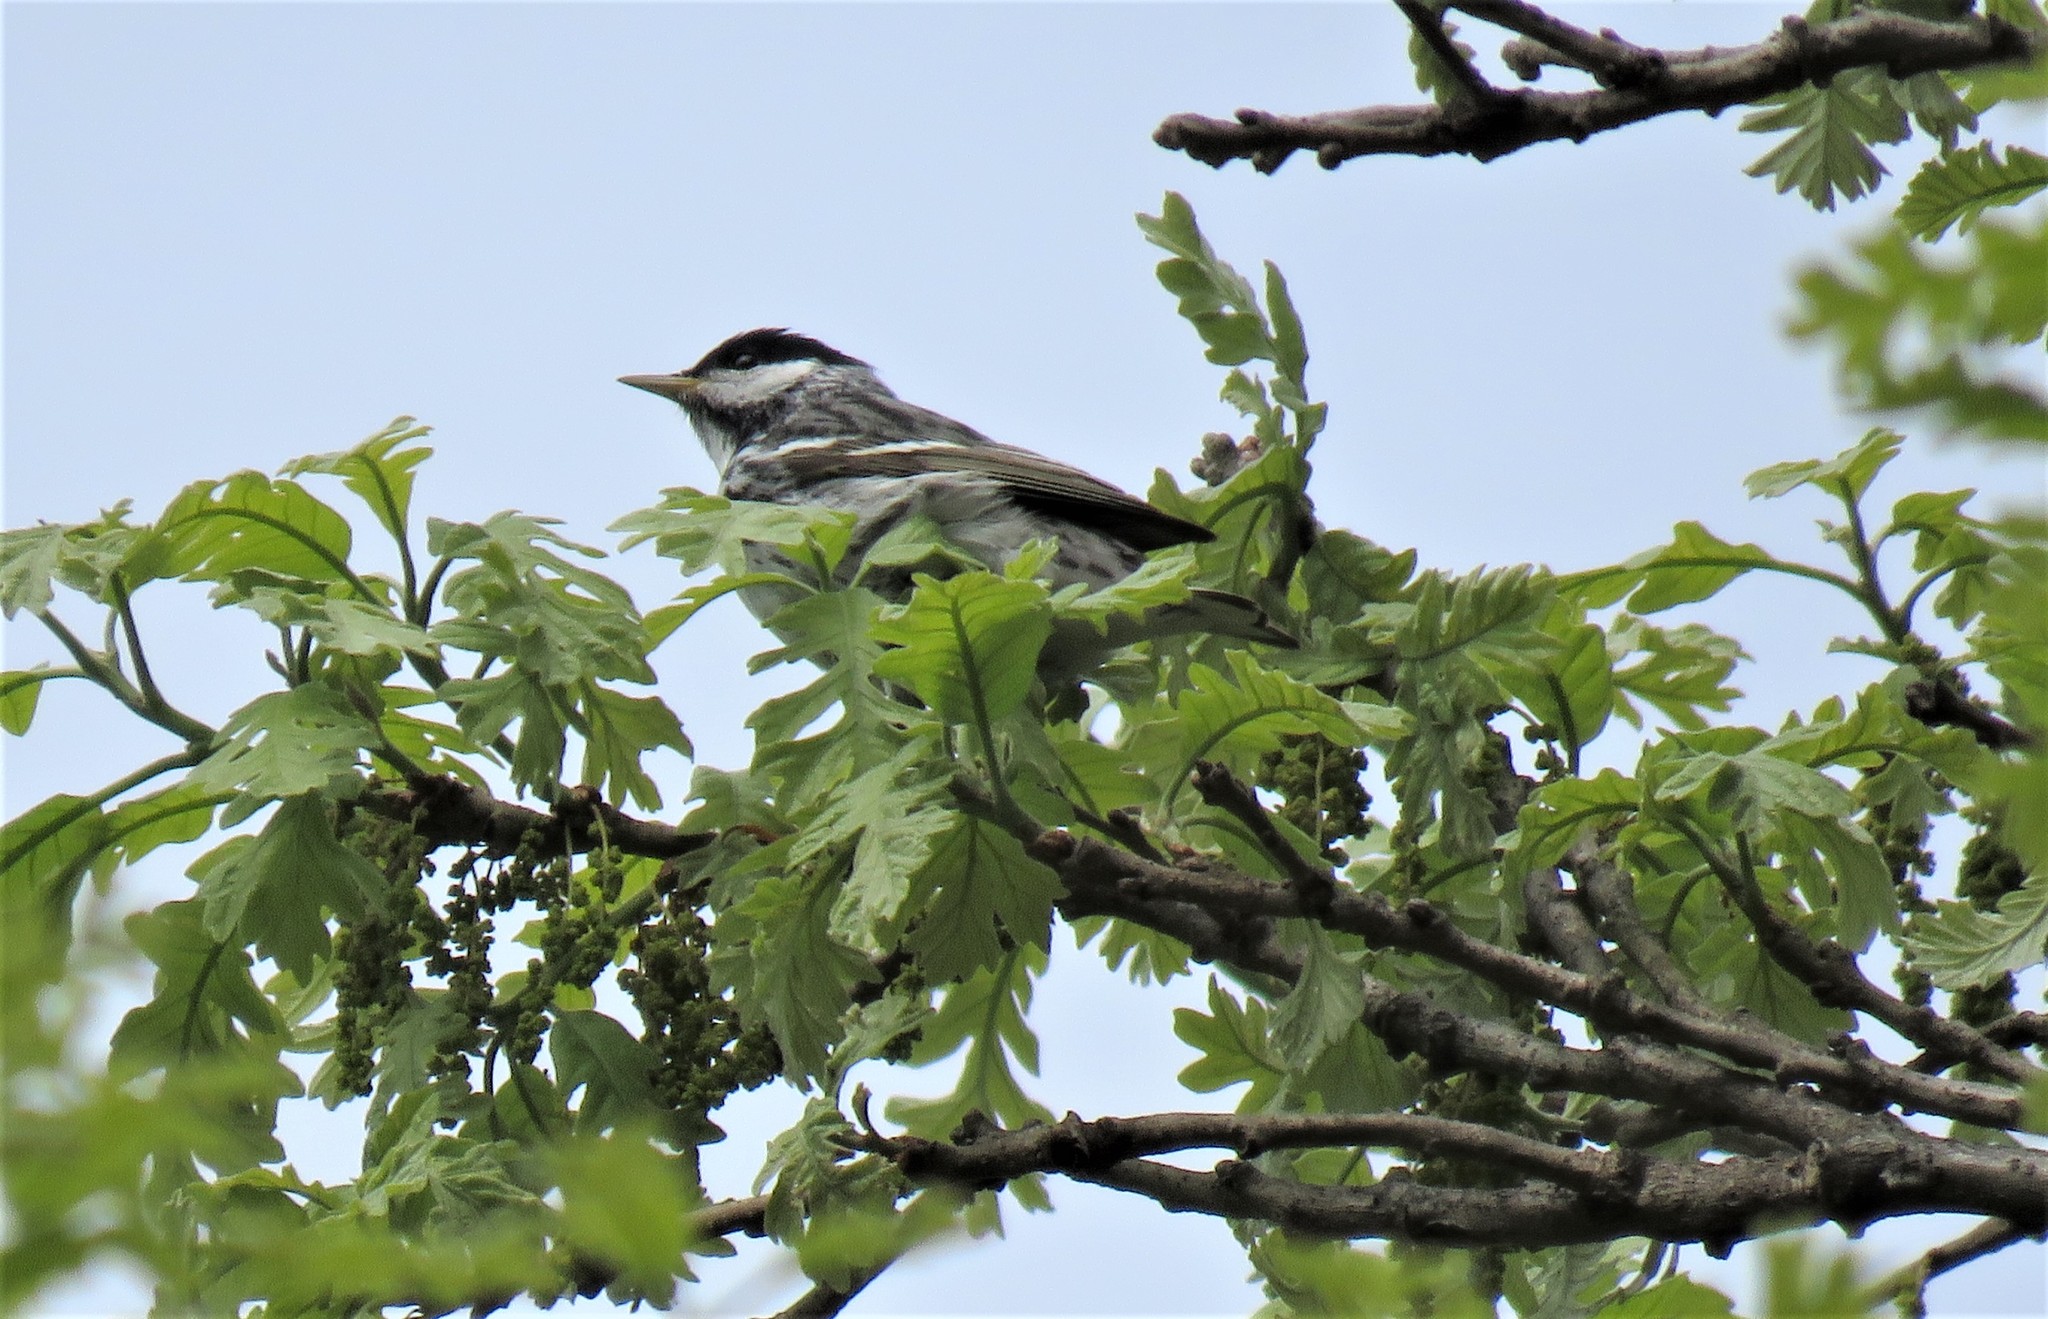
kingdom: Animalia
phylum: Chordata
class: Aves
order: Passeriformes
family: Parulidae
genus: Setophaga
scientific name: Setophaga striata
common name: Blackpoll warbler
